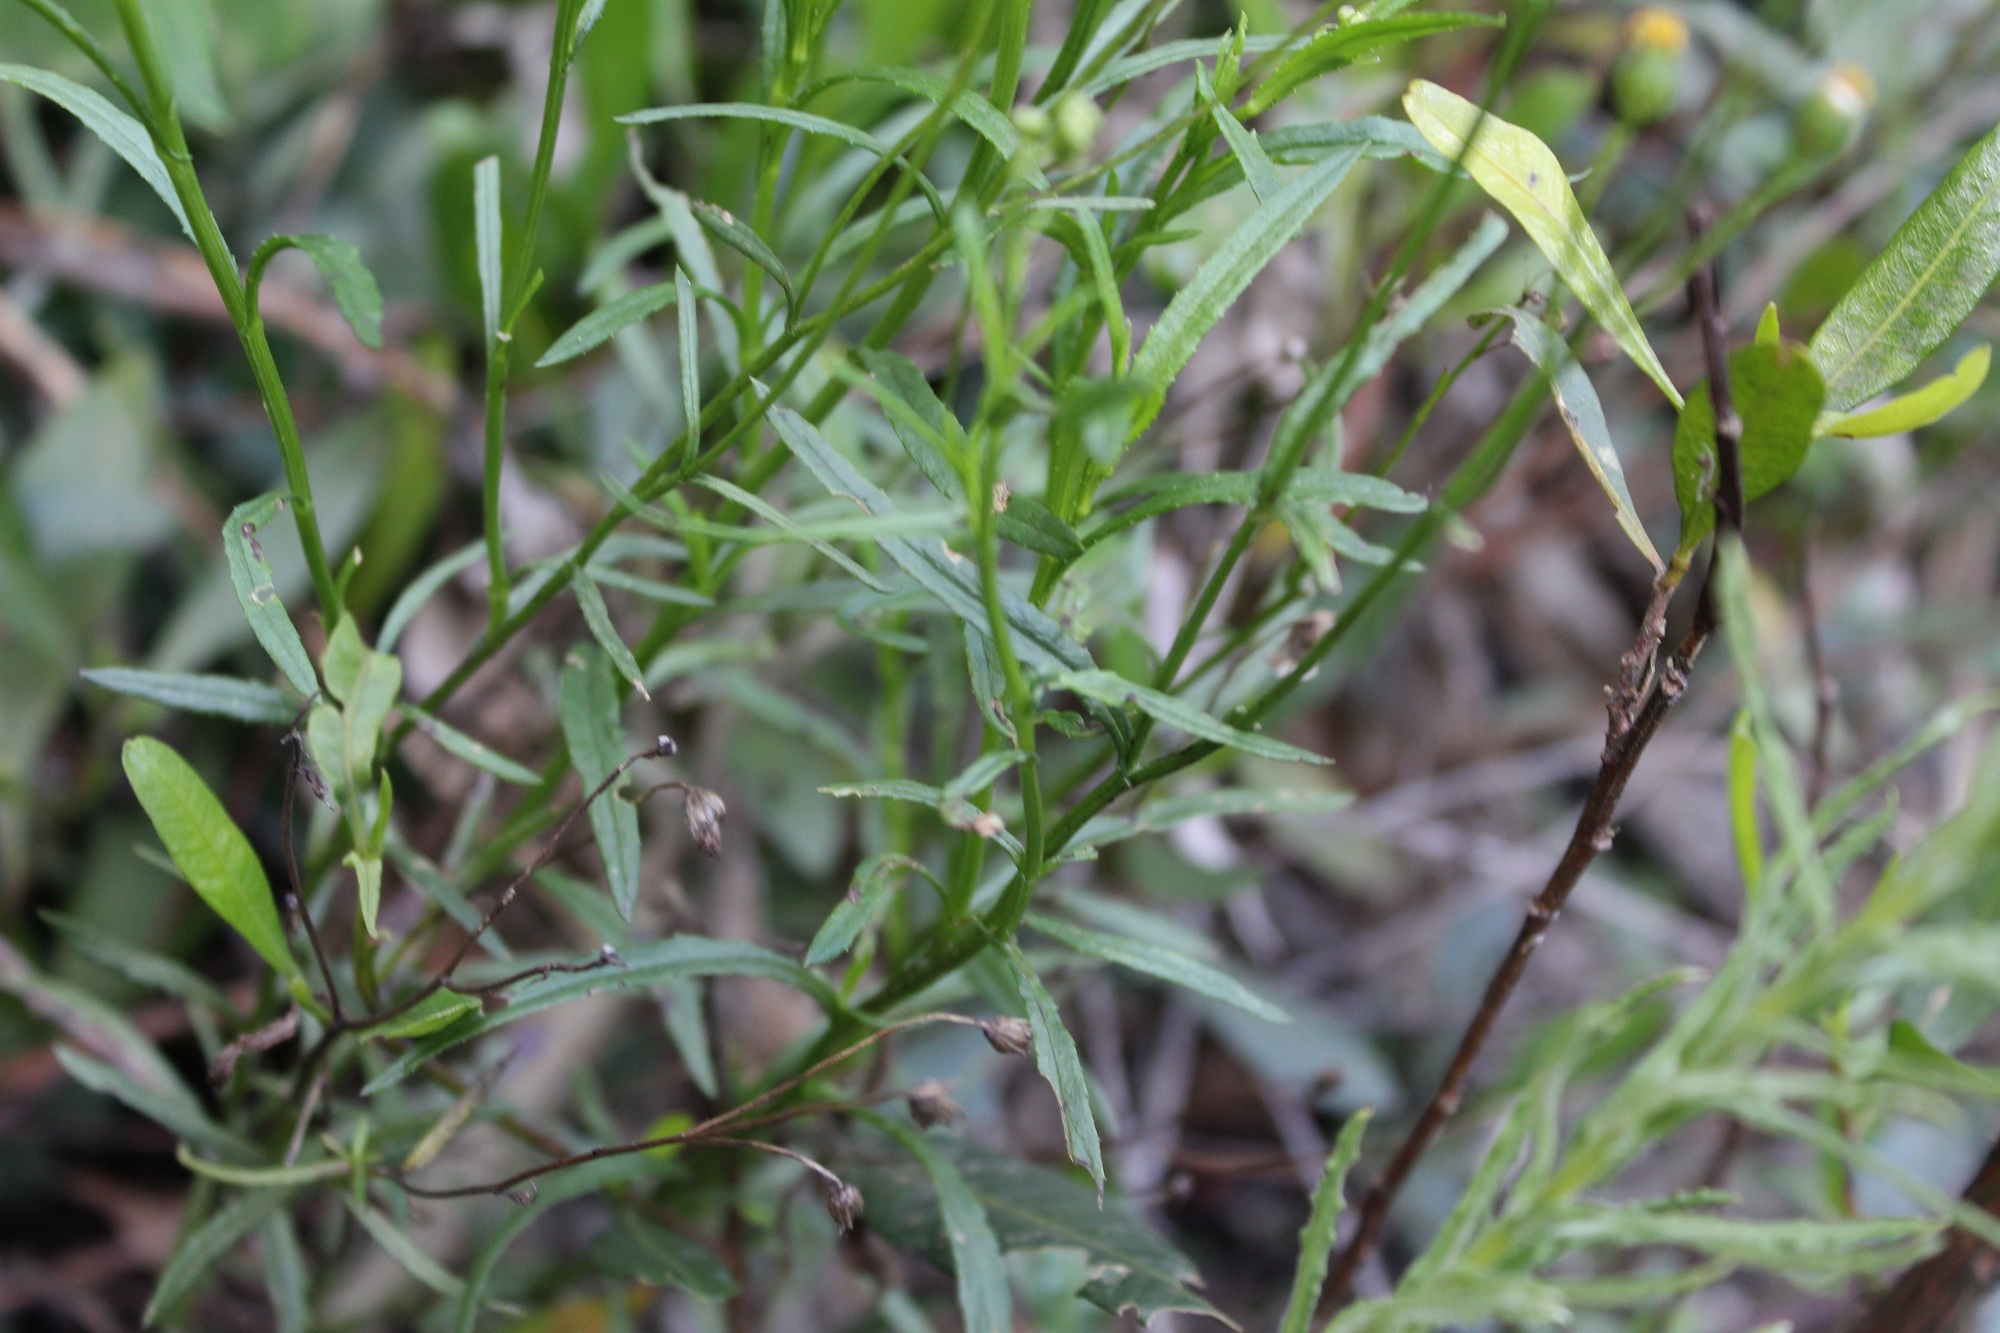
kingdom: Plantae
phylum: Tracheophyta
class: Magnoliopsida
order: Asterales
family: Asteraceae
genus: Senecio
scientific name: Senecio madagascariensis
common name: Madagascar ragwort
